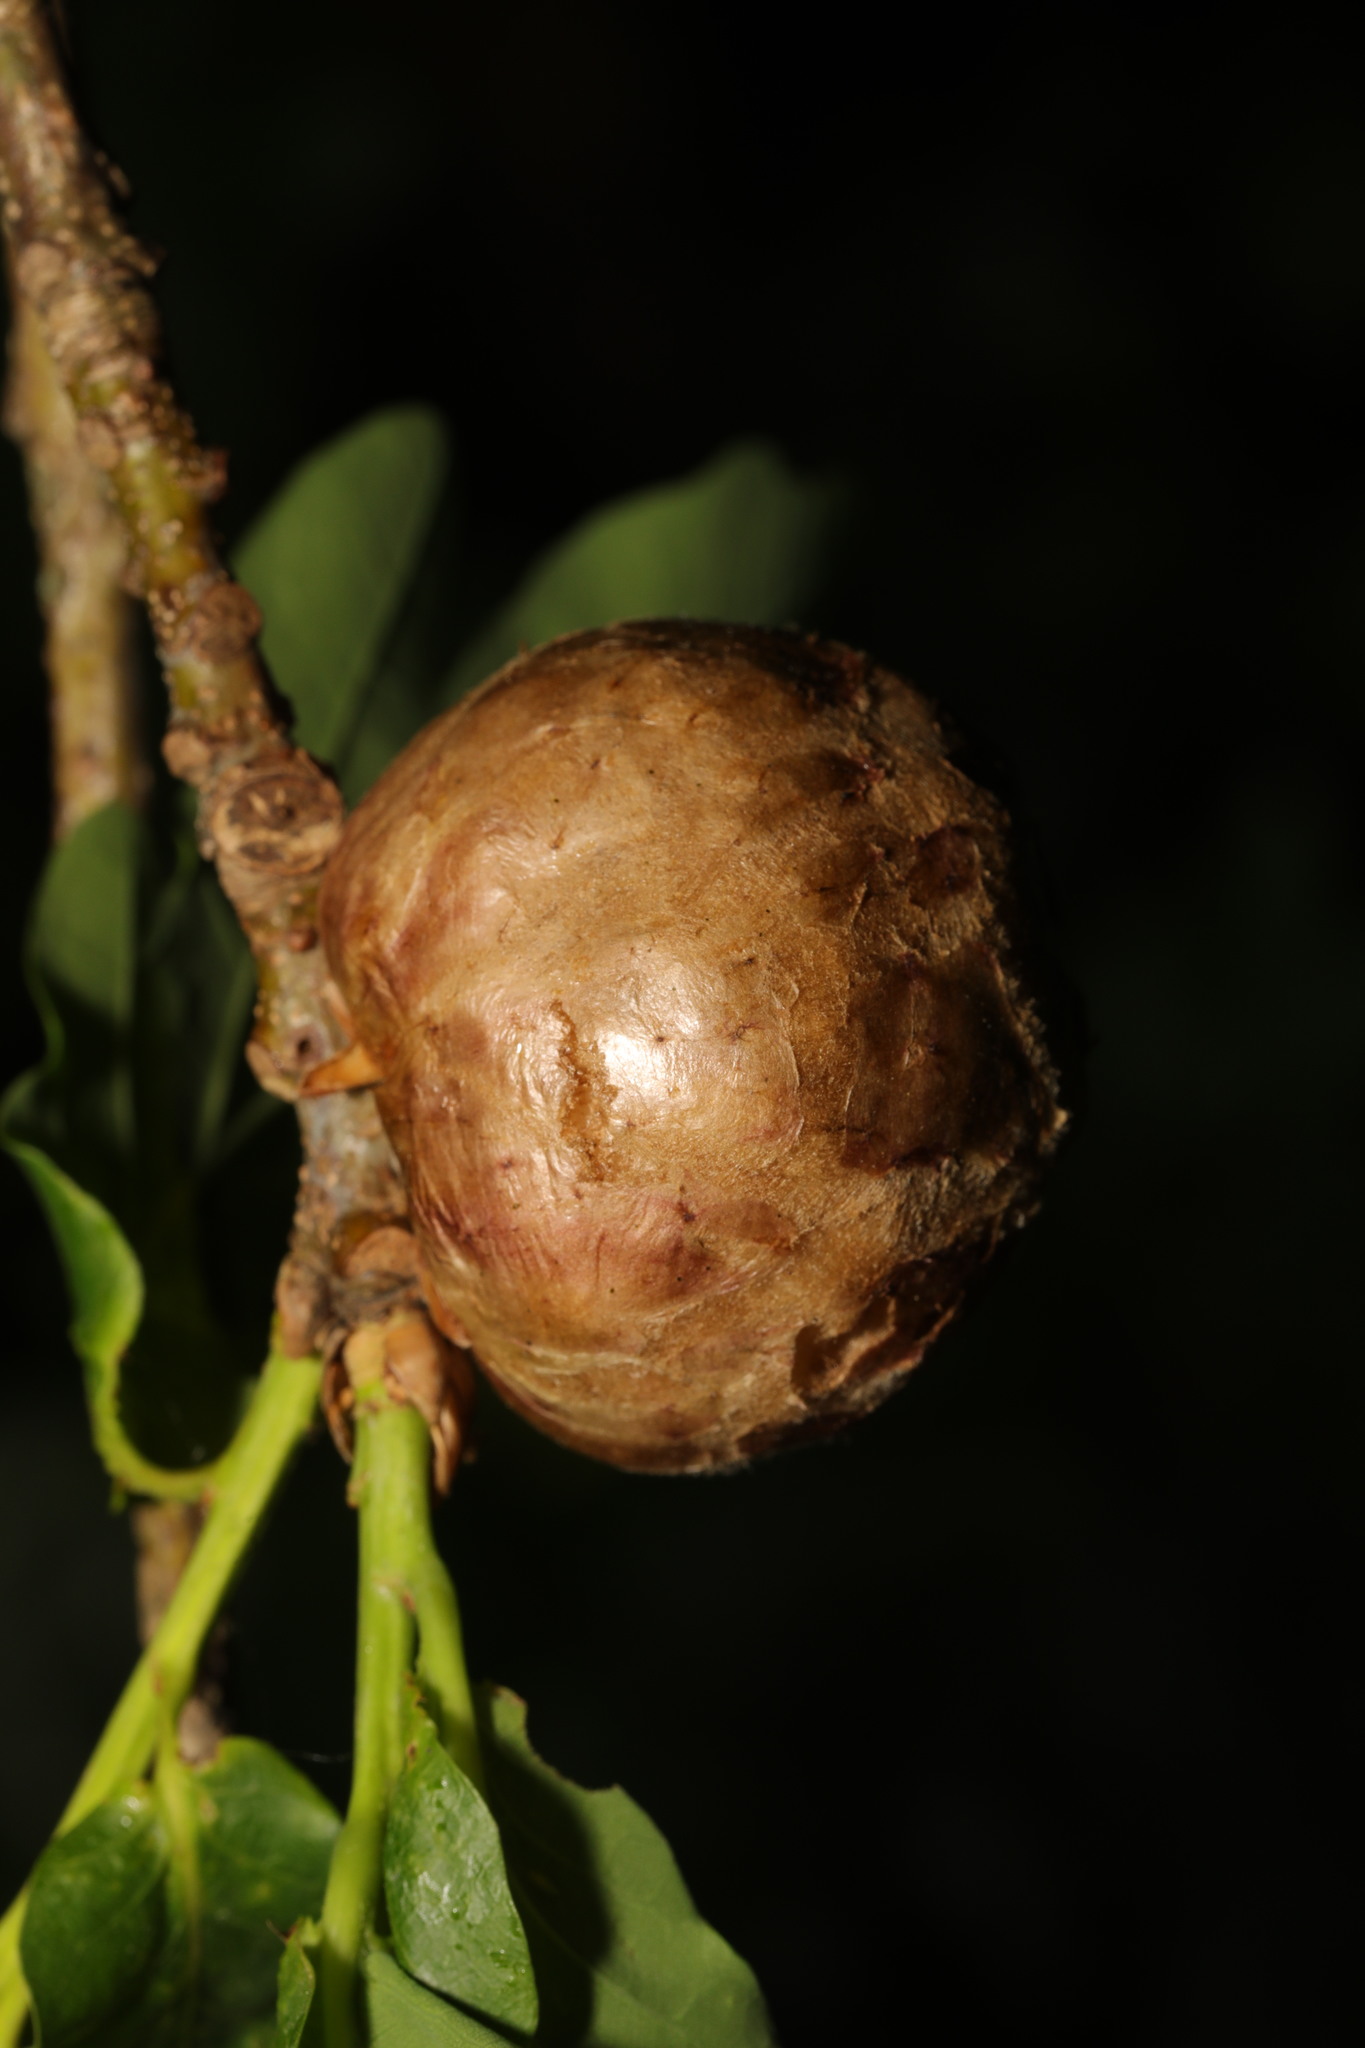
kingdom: Animalia
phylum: Arthropoda
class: Insecta
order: Hymenoptera
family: Cynipidae
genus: Biorhiza
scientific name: Biorhiza pallida
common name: Oak apple
